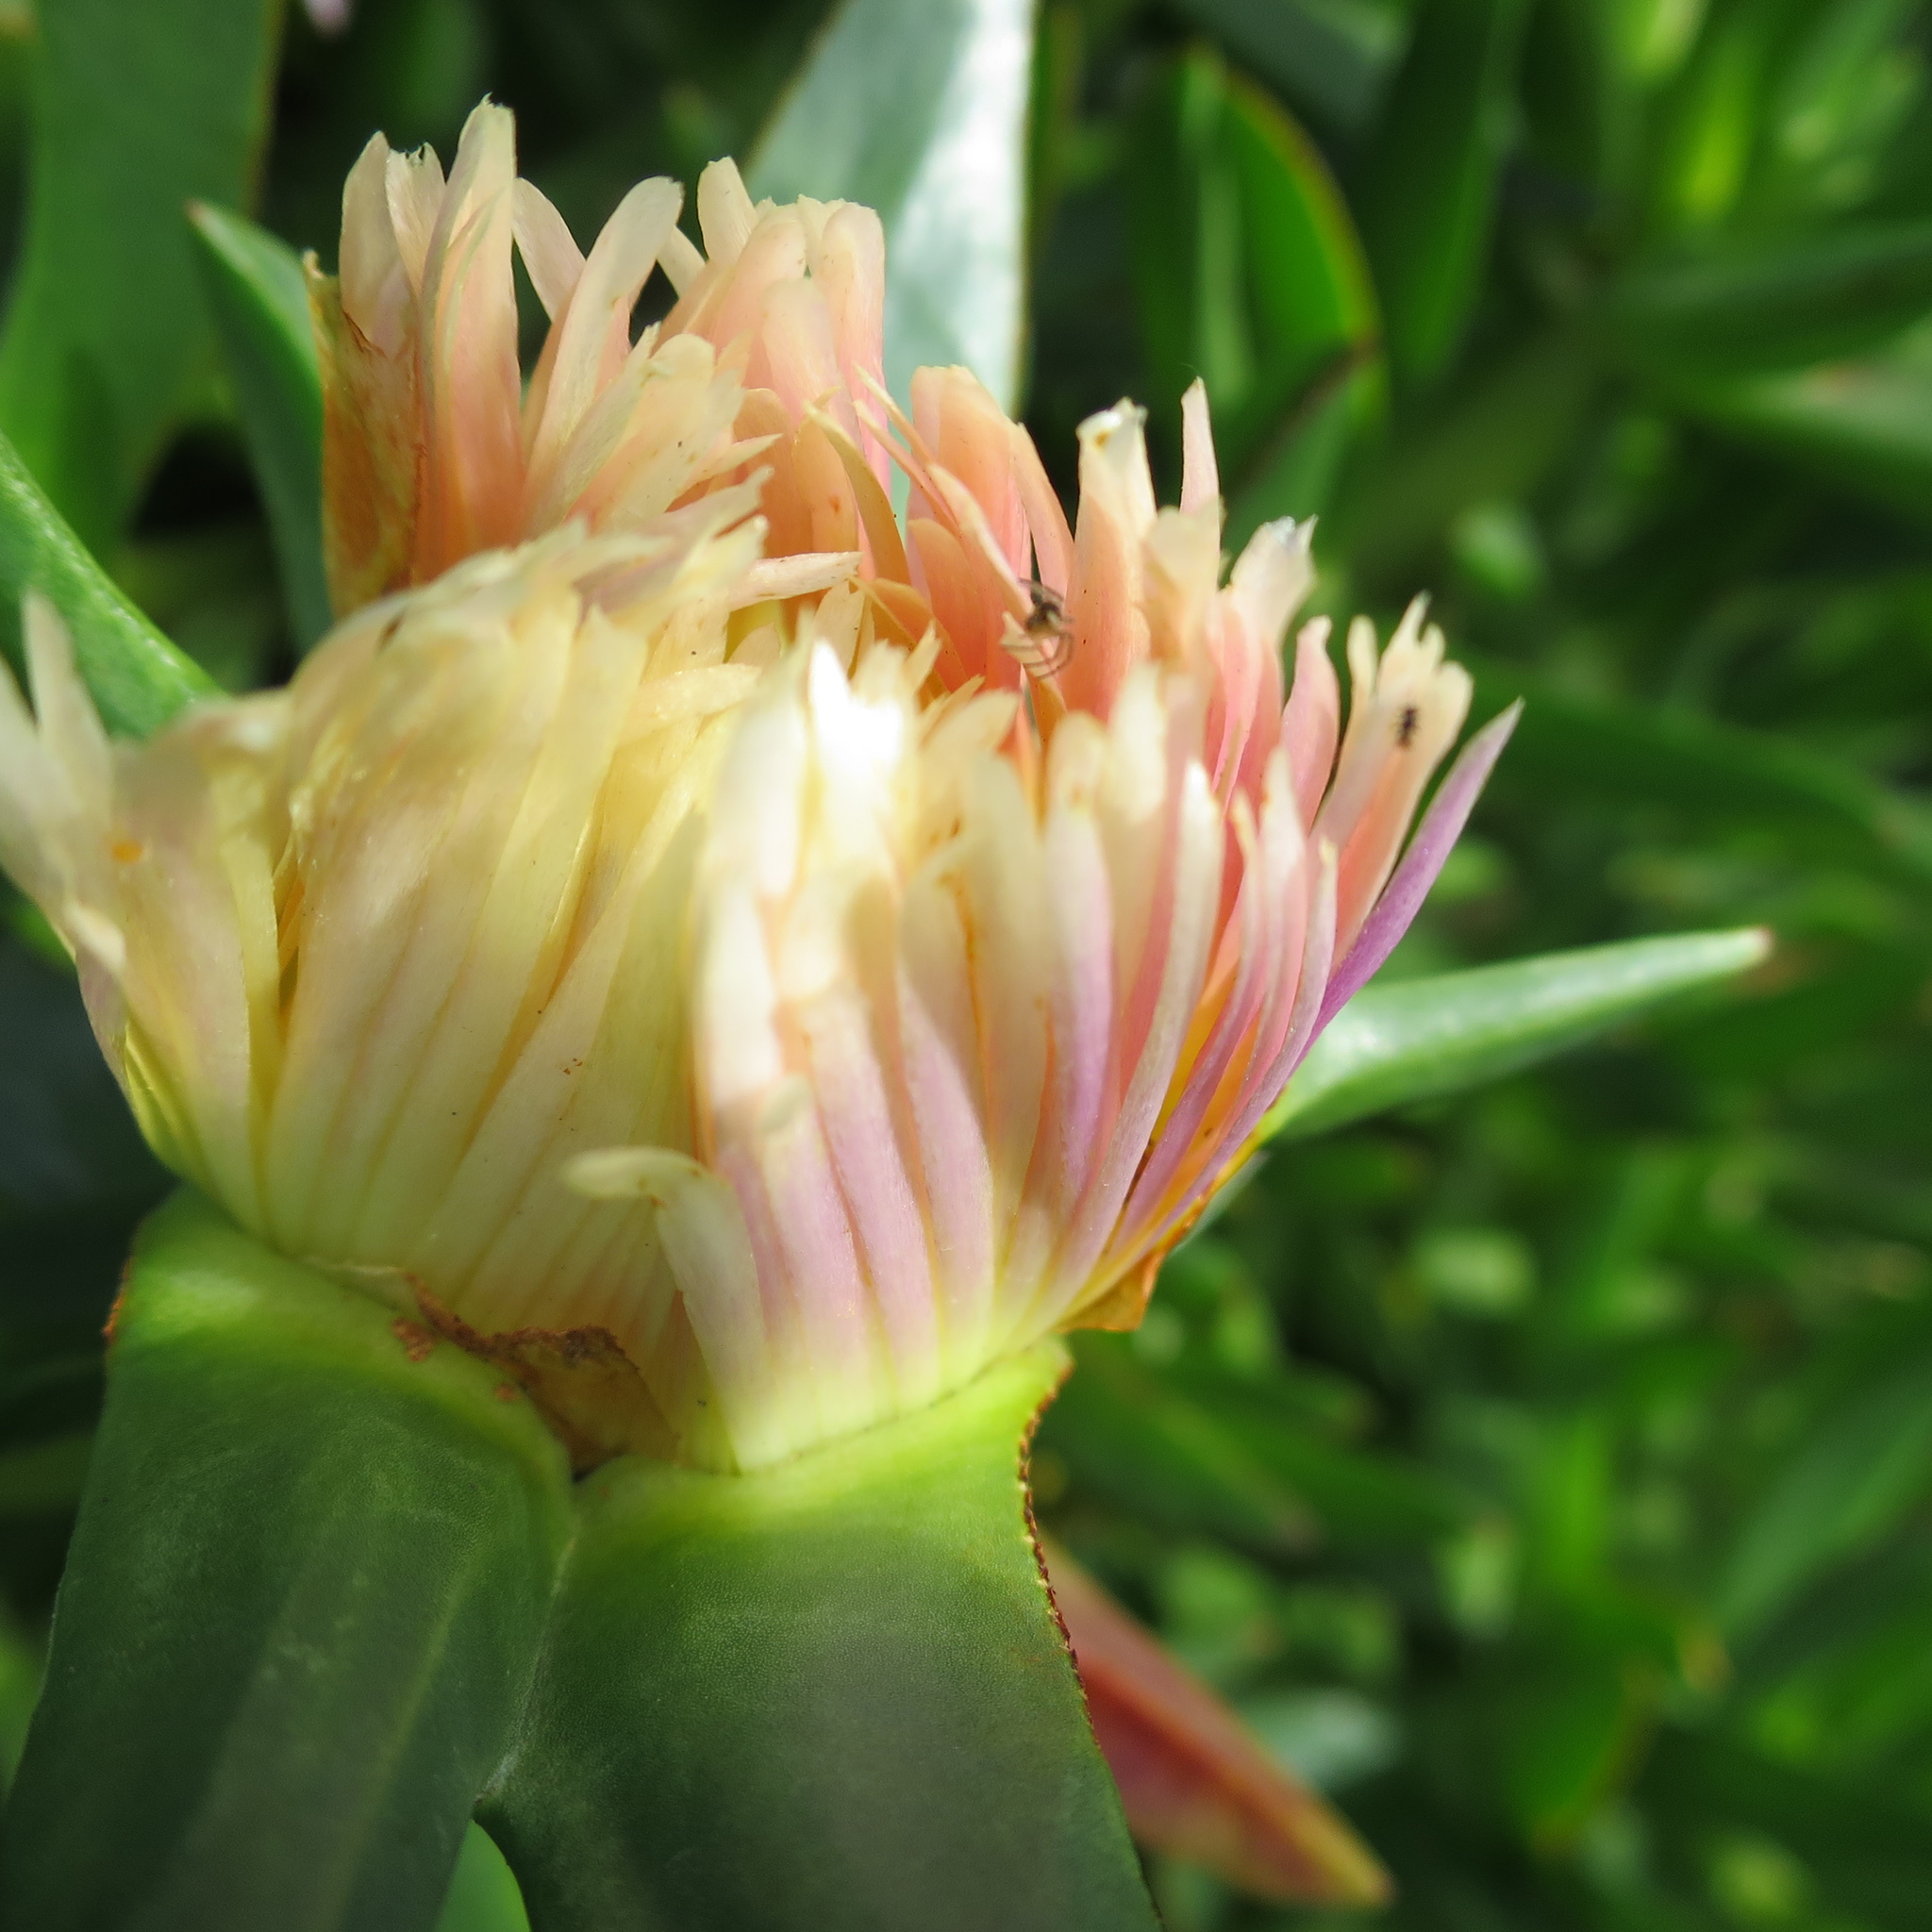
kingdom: Plantae
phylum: Tracheophyta
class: Magnoliopsida
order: Caryophyllales
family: Aizoaceae
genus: Carpobrotus
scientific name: Carpobrotus edulis
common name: Hottentot-fig
